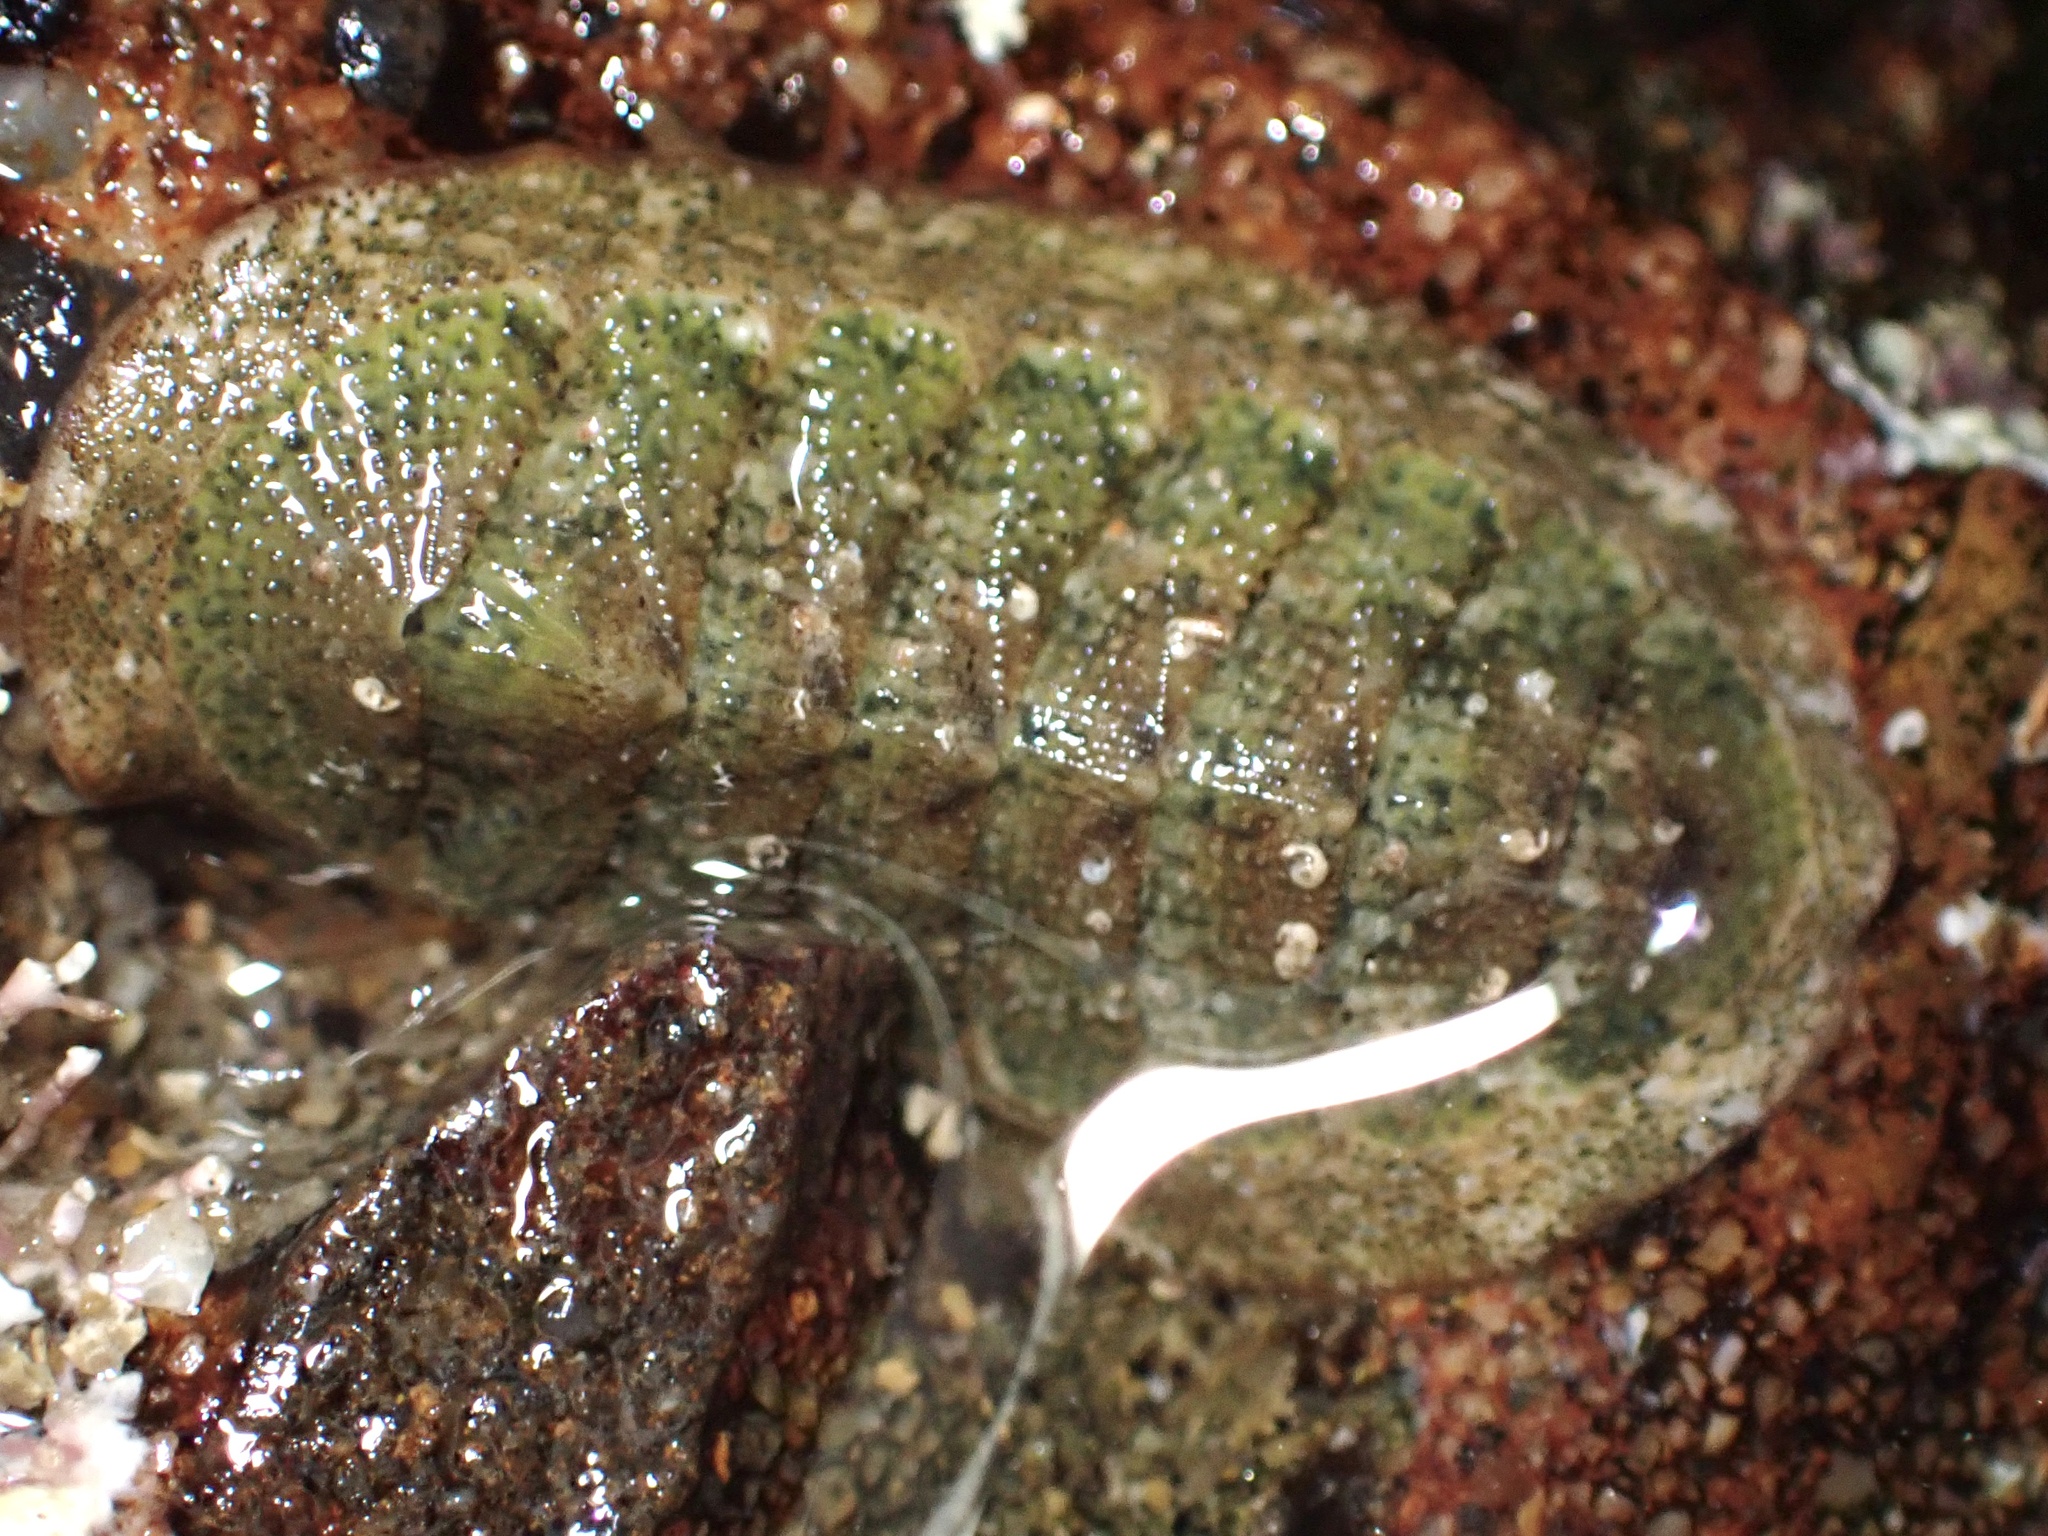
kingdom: Animalia
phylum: Mollusca
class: Polyplacophora
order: Chitonida
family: Ischnochitonidae
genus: Lepidozona
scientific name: Lepidozona pectinulata
